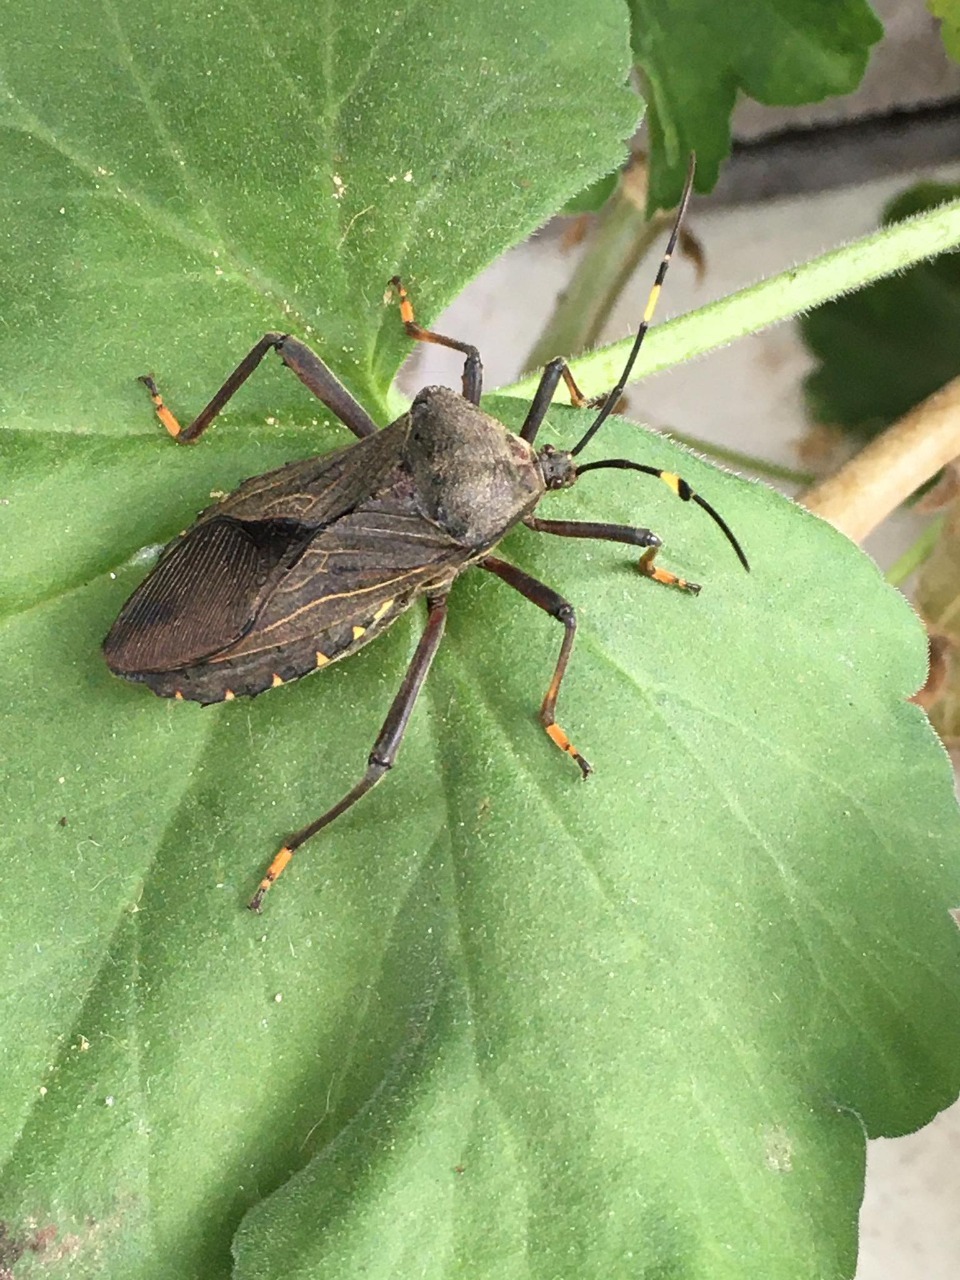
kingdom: Animalia
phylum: Arthropoda
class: Insecta
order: Hemiptera
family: Coreidae
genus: Pachylis
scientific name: Pachylis laticornis
